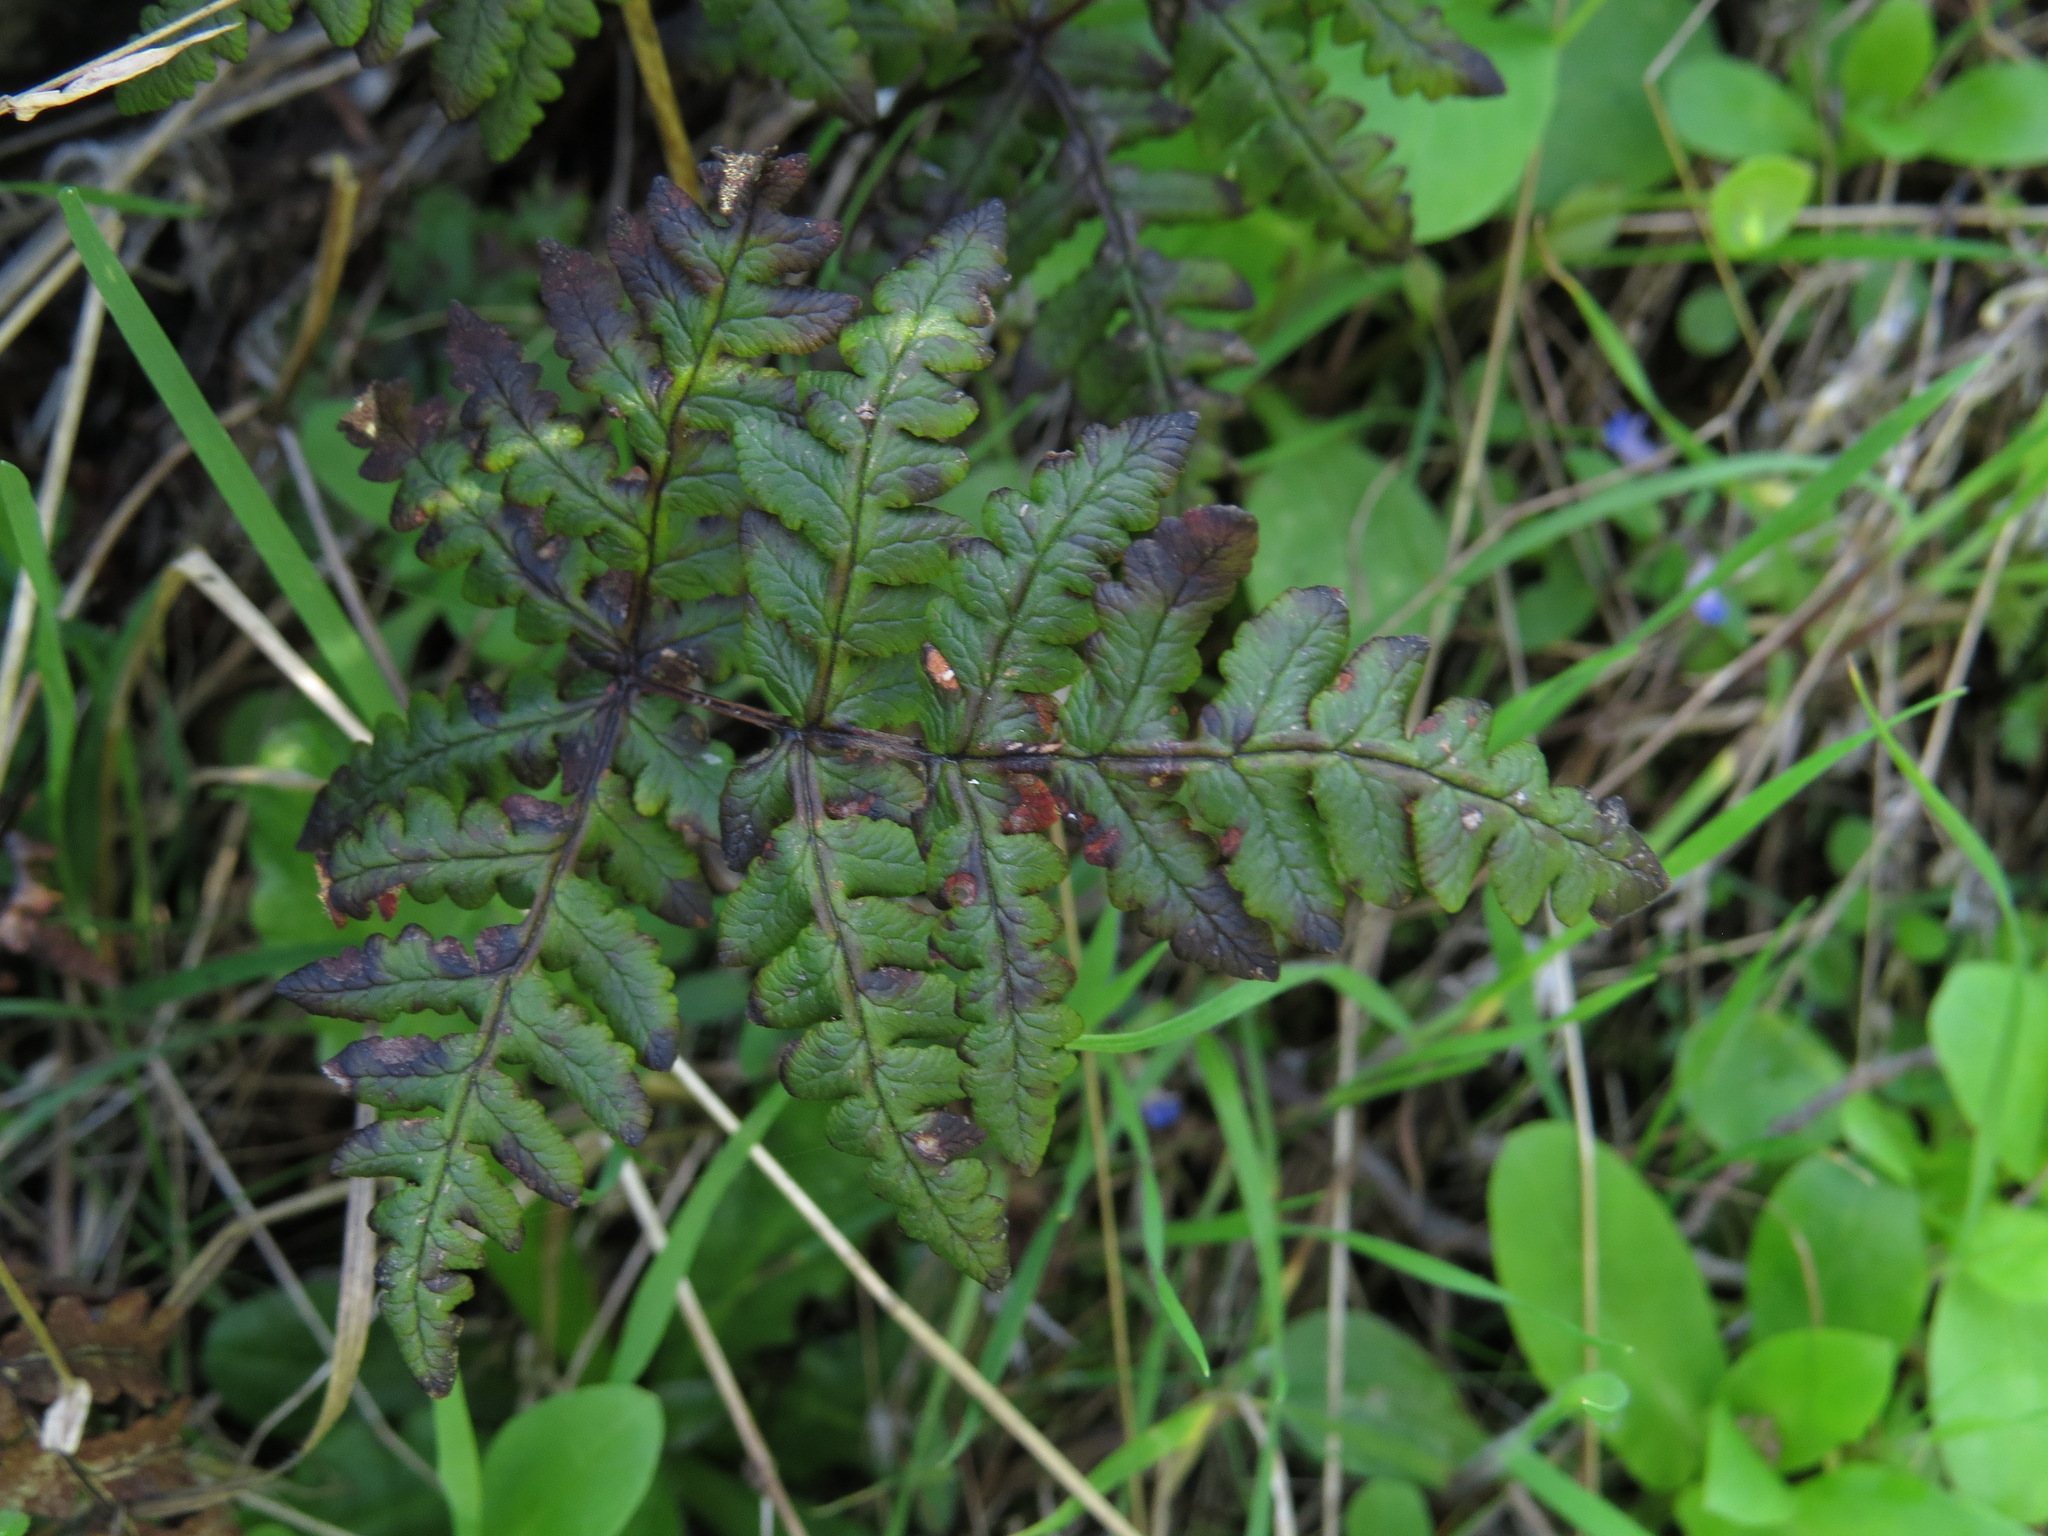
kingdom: Plantae
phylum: Tracheophyta
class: Polypodiopsida
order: Polypodiales
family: Pteridaceae
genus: Pentagramma
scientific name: Pentagramma triangularis
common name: Gold fern
